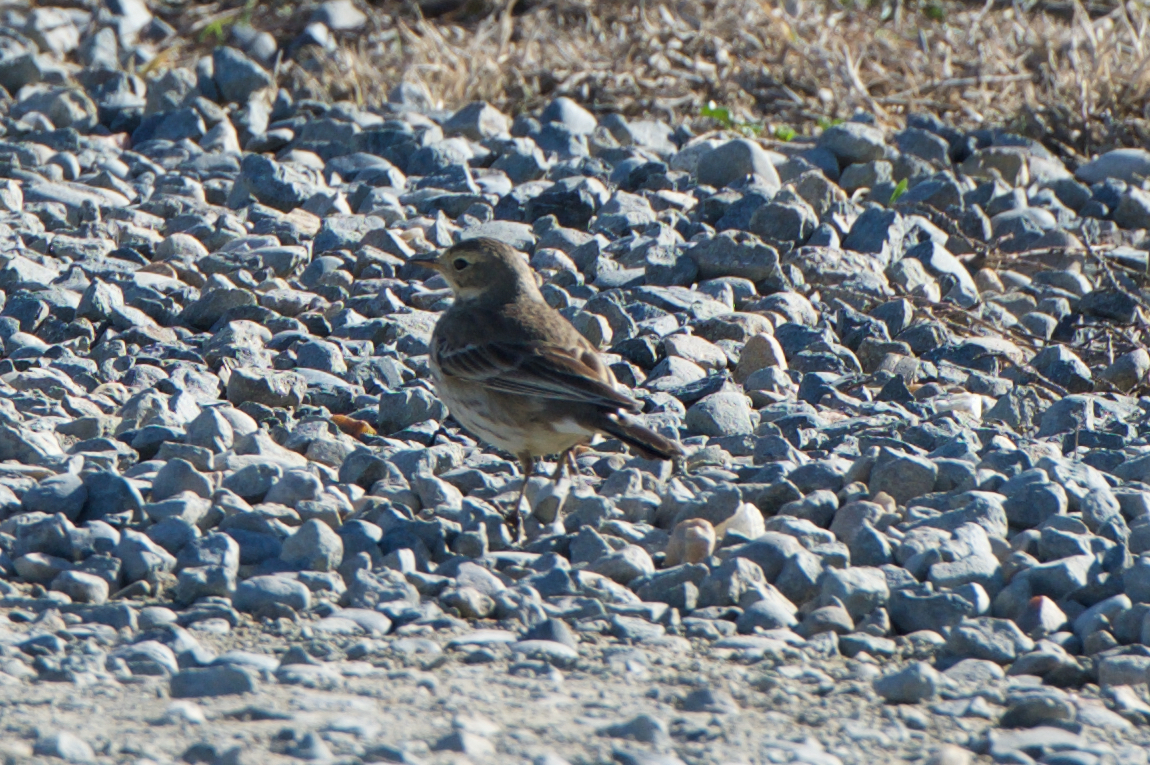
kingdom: Animalia
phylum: Chordata
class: Aves
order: Passeriformes
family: Motacillidae
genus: Anthus
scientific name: Anthus rubescens
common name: Buff-bellied pipit
